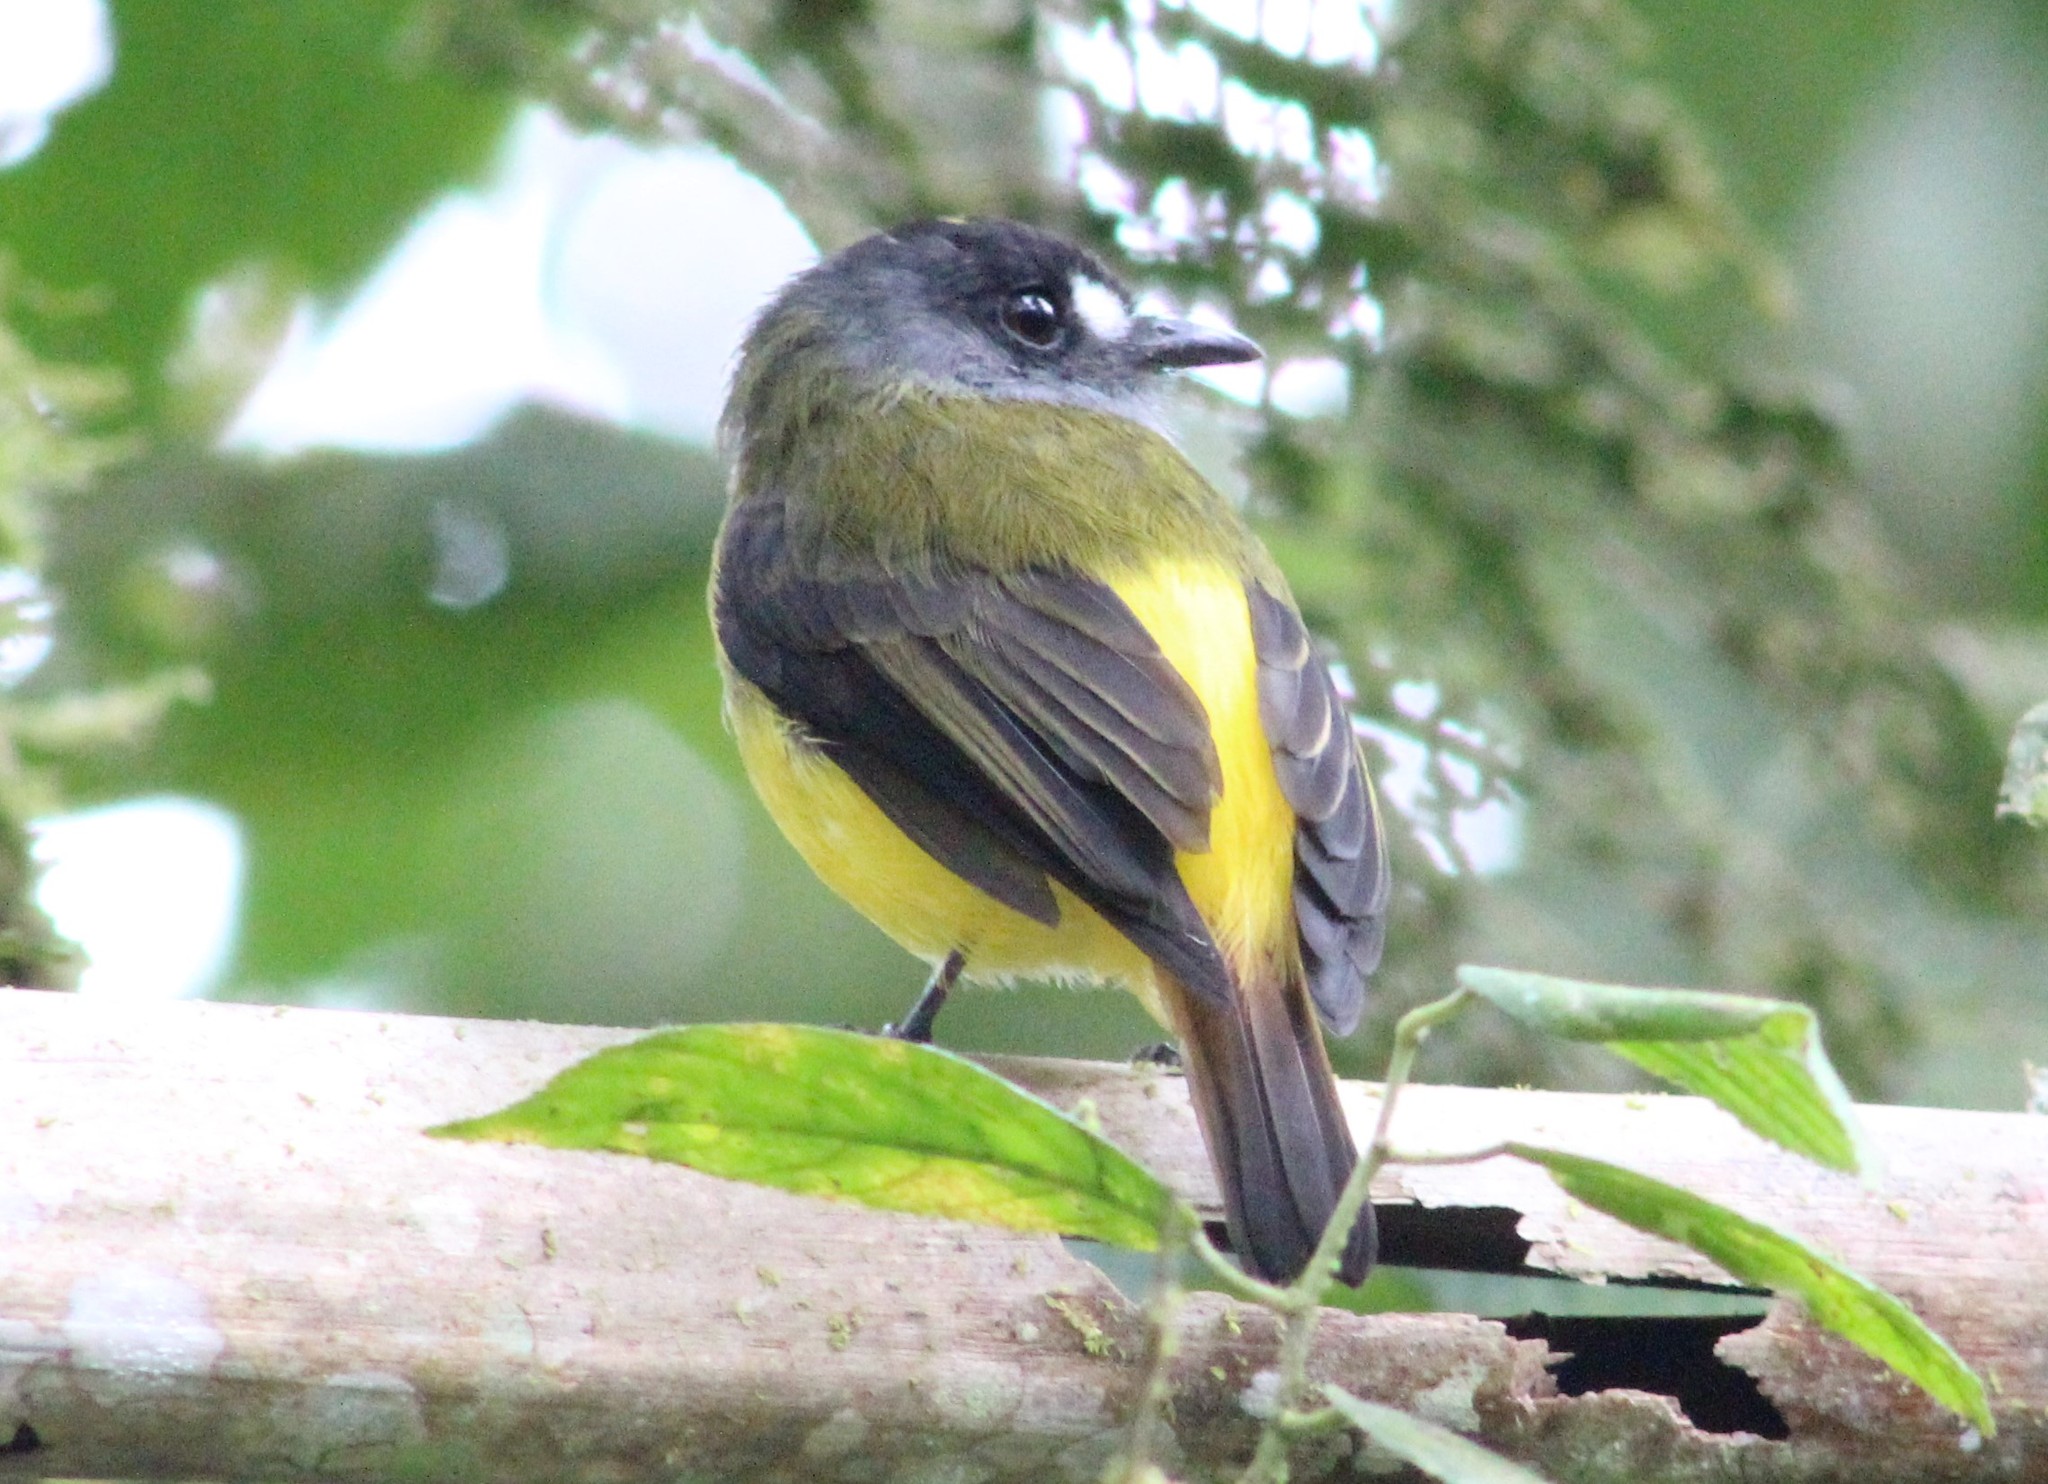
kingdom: Animalia
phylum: Chordata
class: Aves
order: Passeriformes
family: Tyrannidae
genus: Myiotriccus
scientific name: Myiotriccus ornatus
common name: Ornate flycatcher
